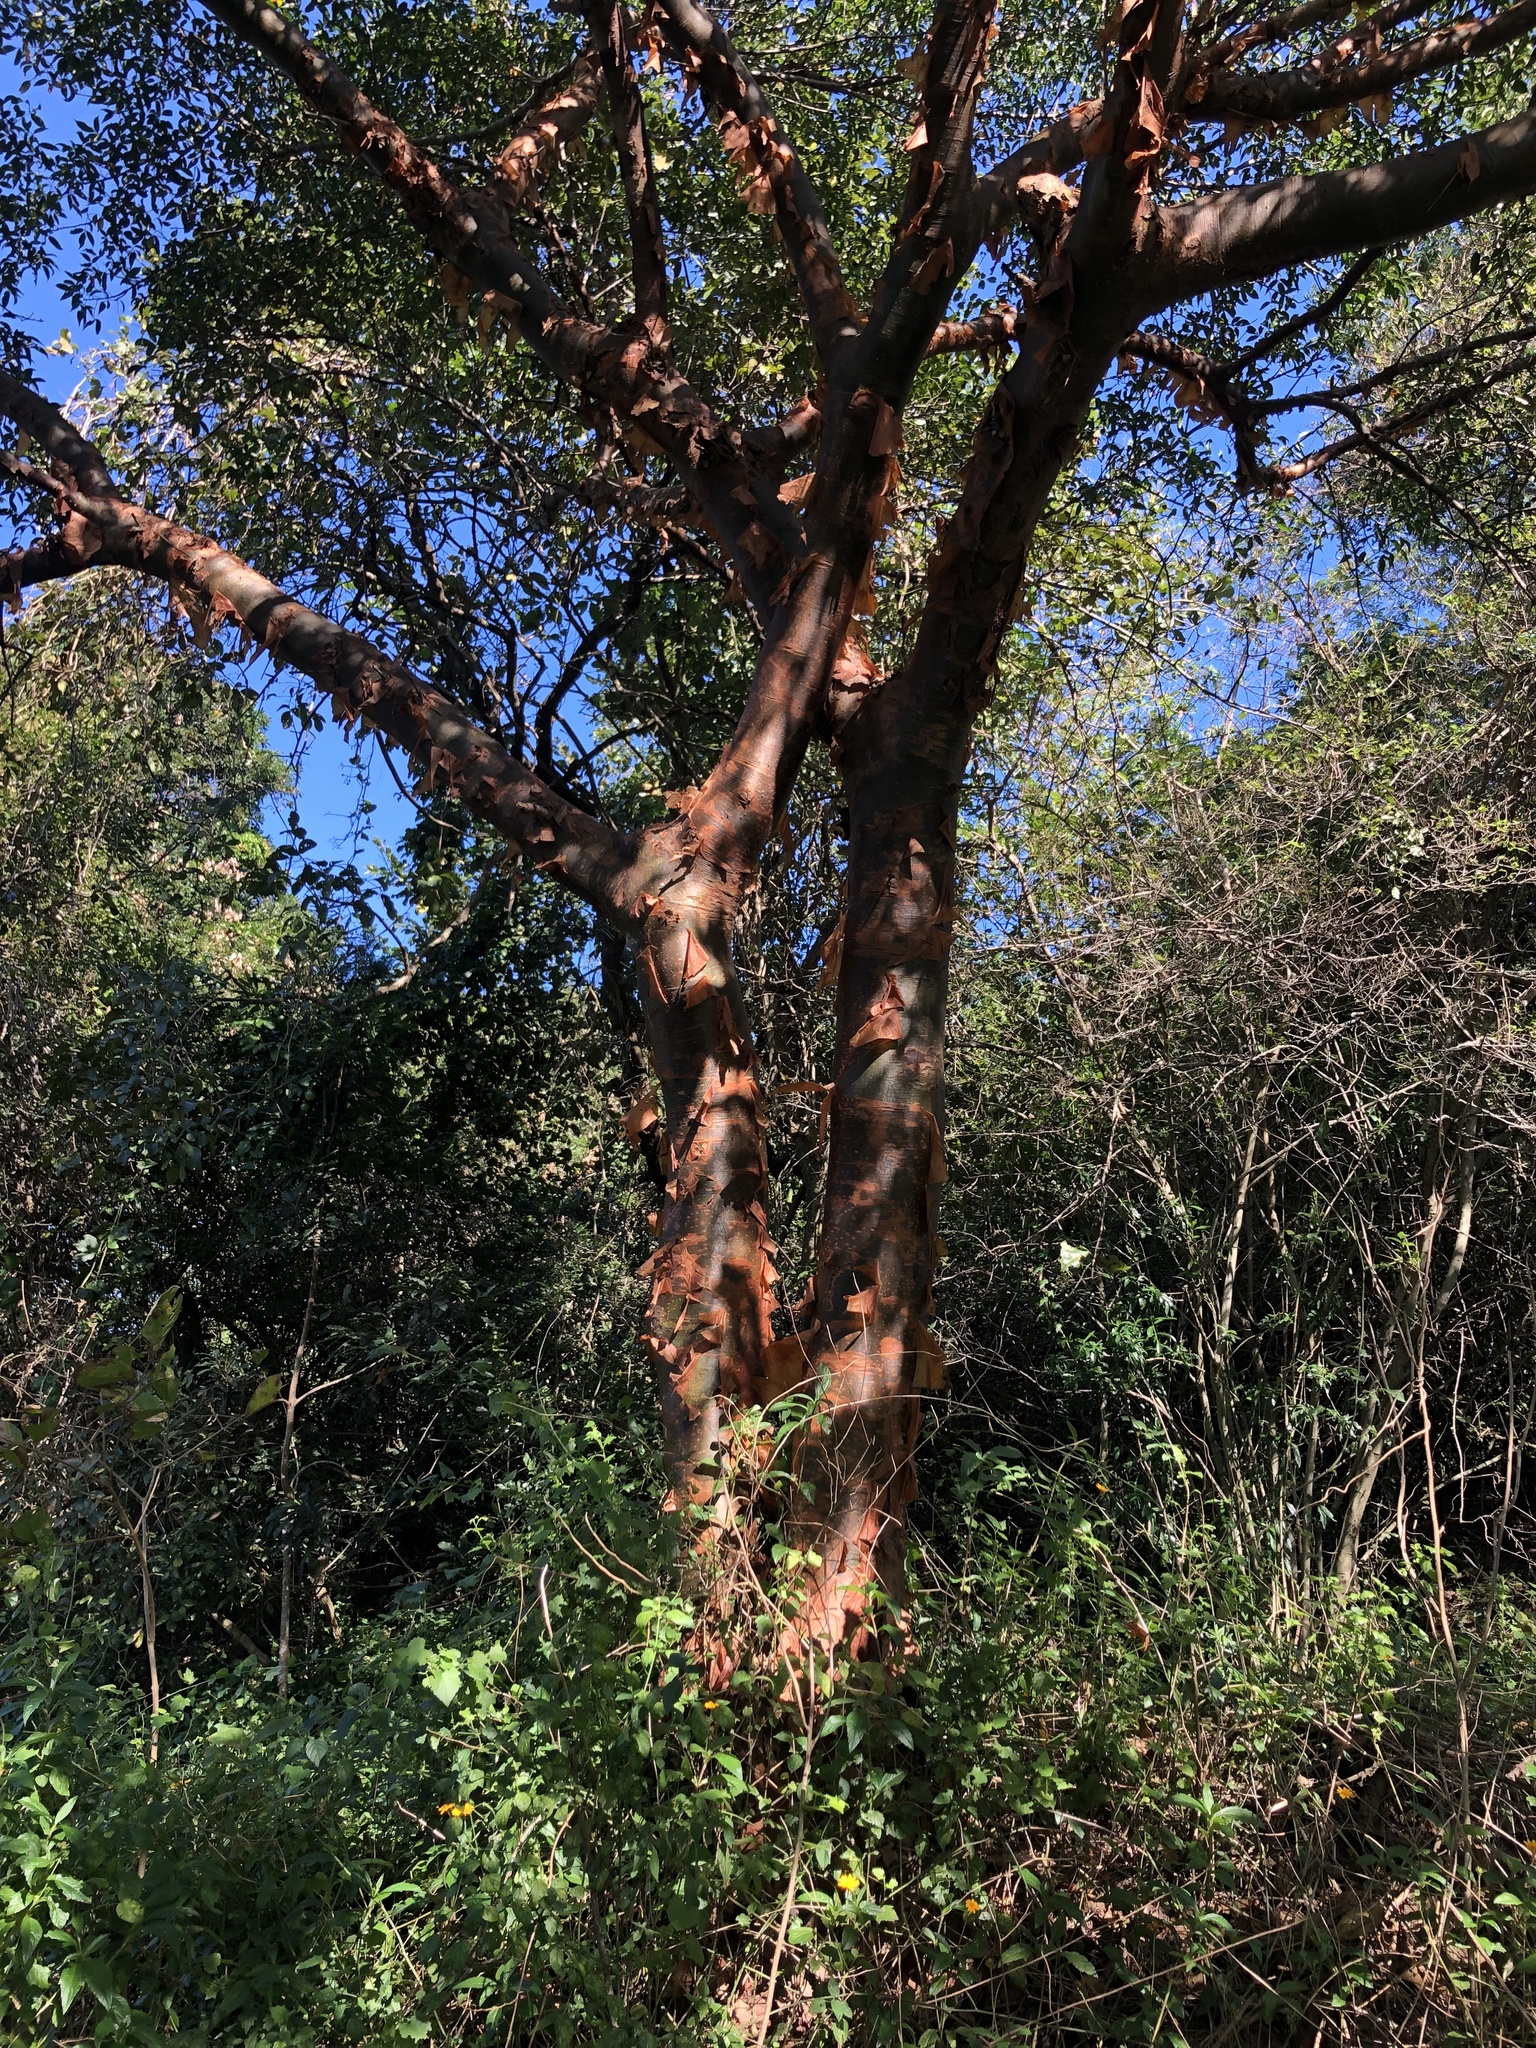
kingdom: Plantae
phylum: Tracheophyta
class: Magnoliopsida
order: Sapindales
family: Burseraceae
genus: Commiphora
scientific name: Commiphora harveyi
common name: Copper-stem corkwood
